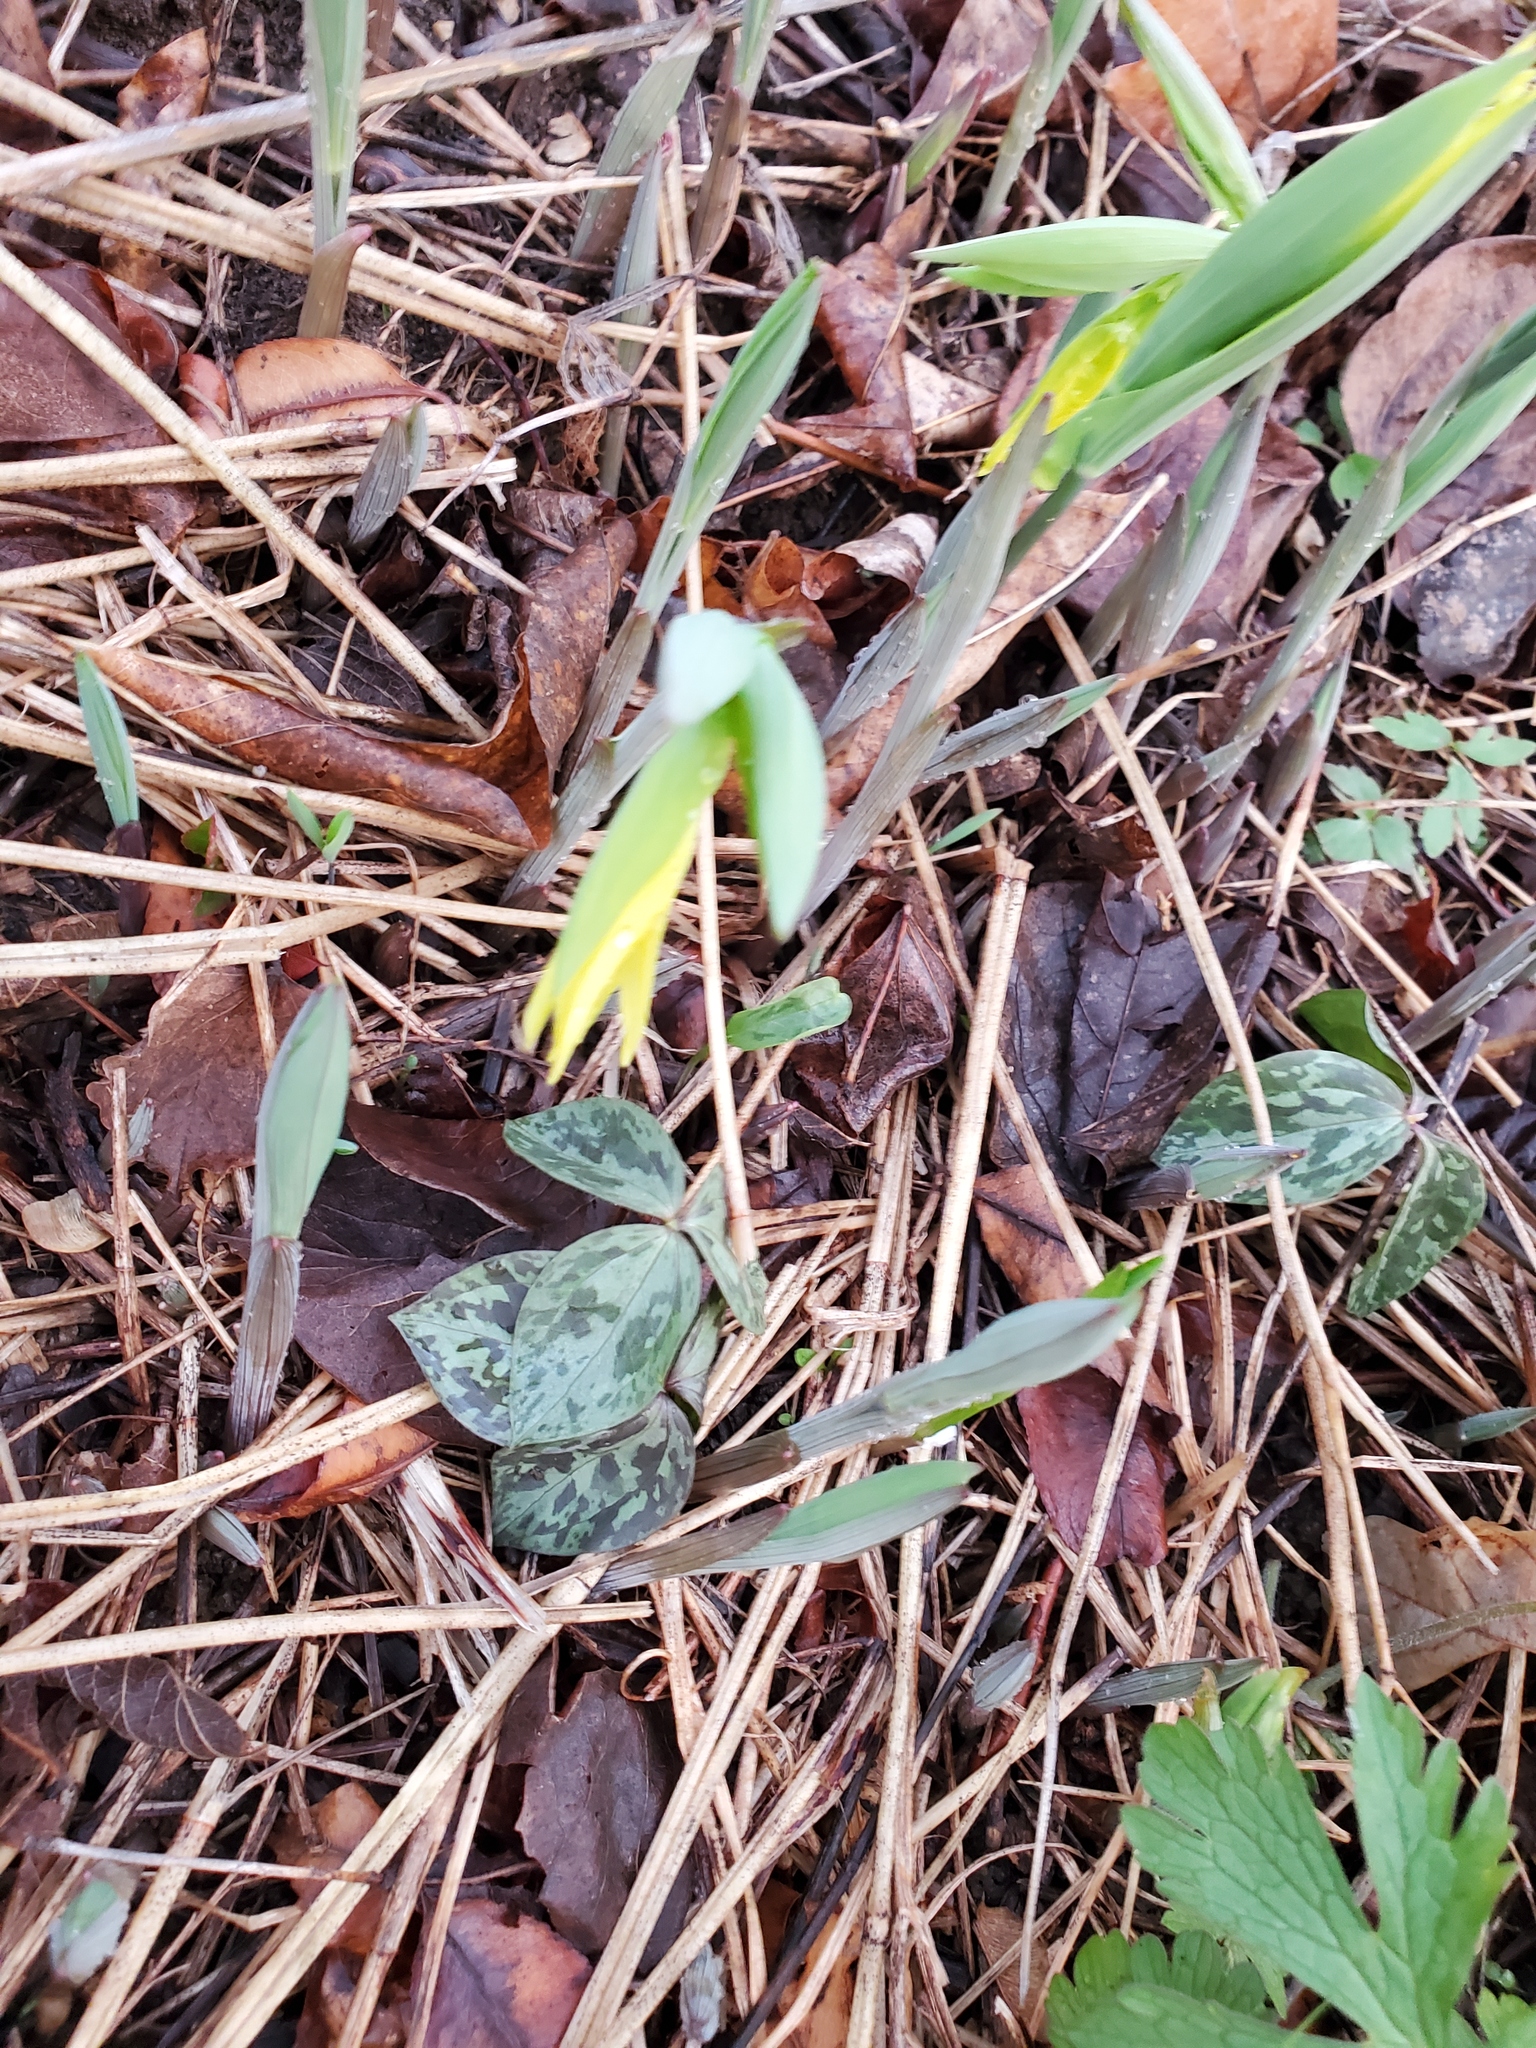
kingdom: Plantae
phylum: Tracheophyta
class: Liliopsida
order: Liliales
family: Colchicaceae
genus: Uvularia
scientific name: Uvularia grandiflora
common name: Bellwort
